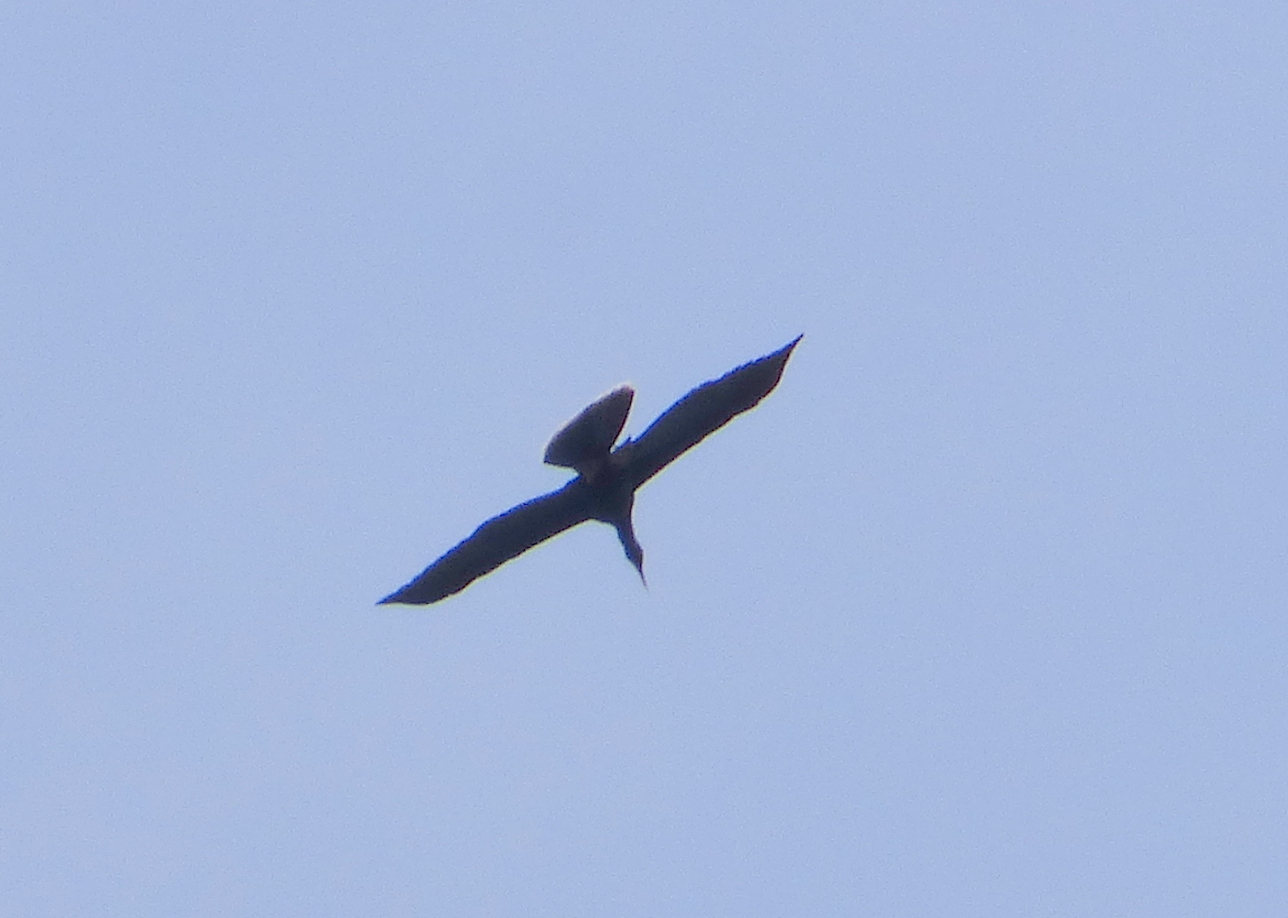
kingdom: Animalia
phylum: Chordata
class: Aves
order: Suliformes
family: Anhingidae
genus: Anhinga
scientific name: Anhinga anhinga
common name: Anhinga
